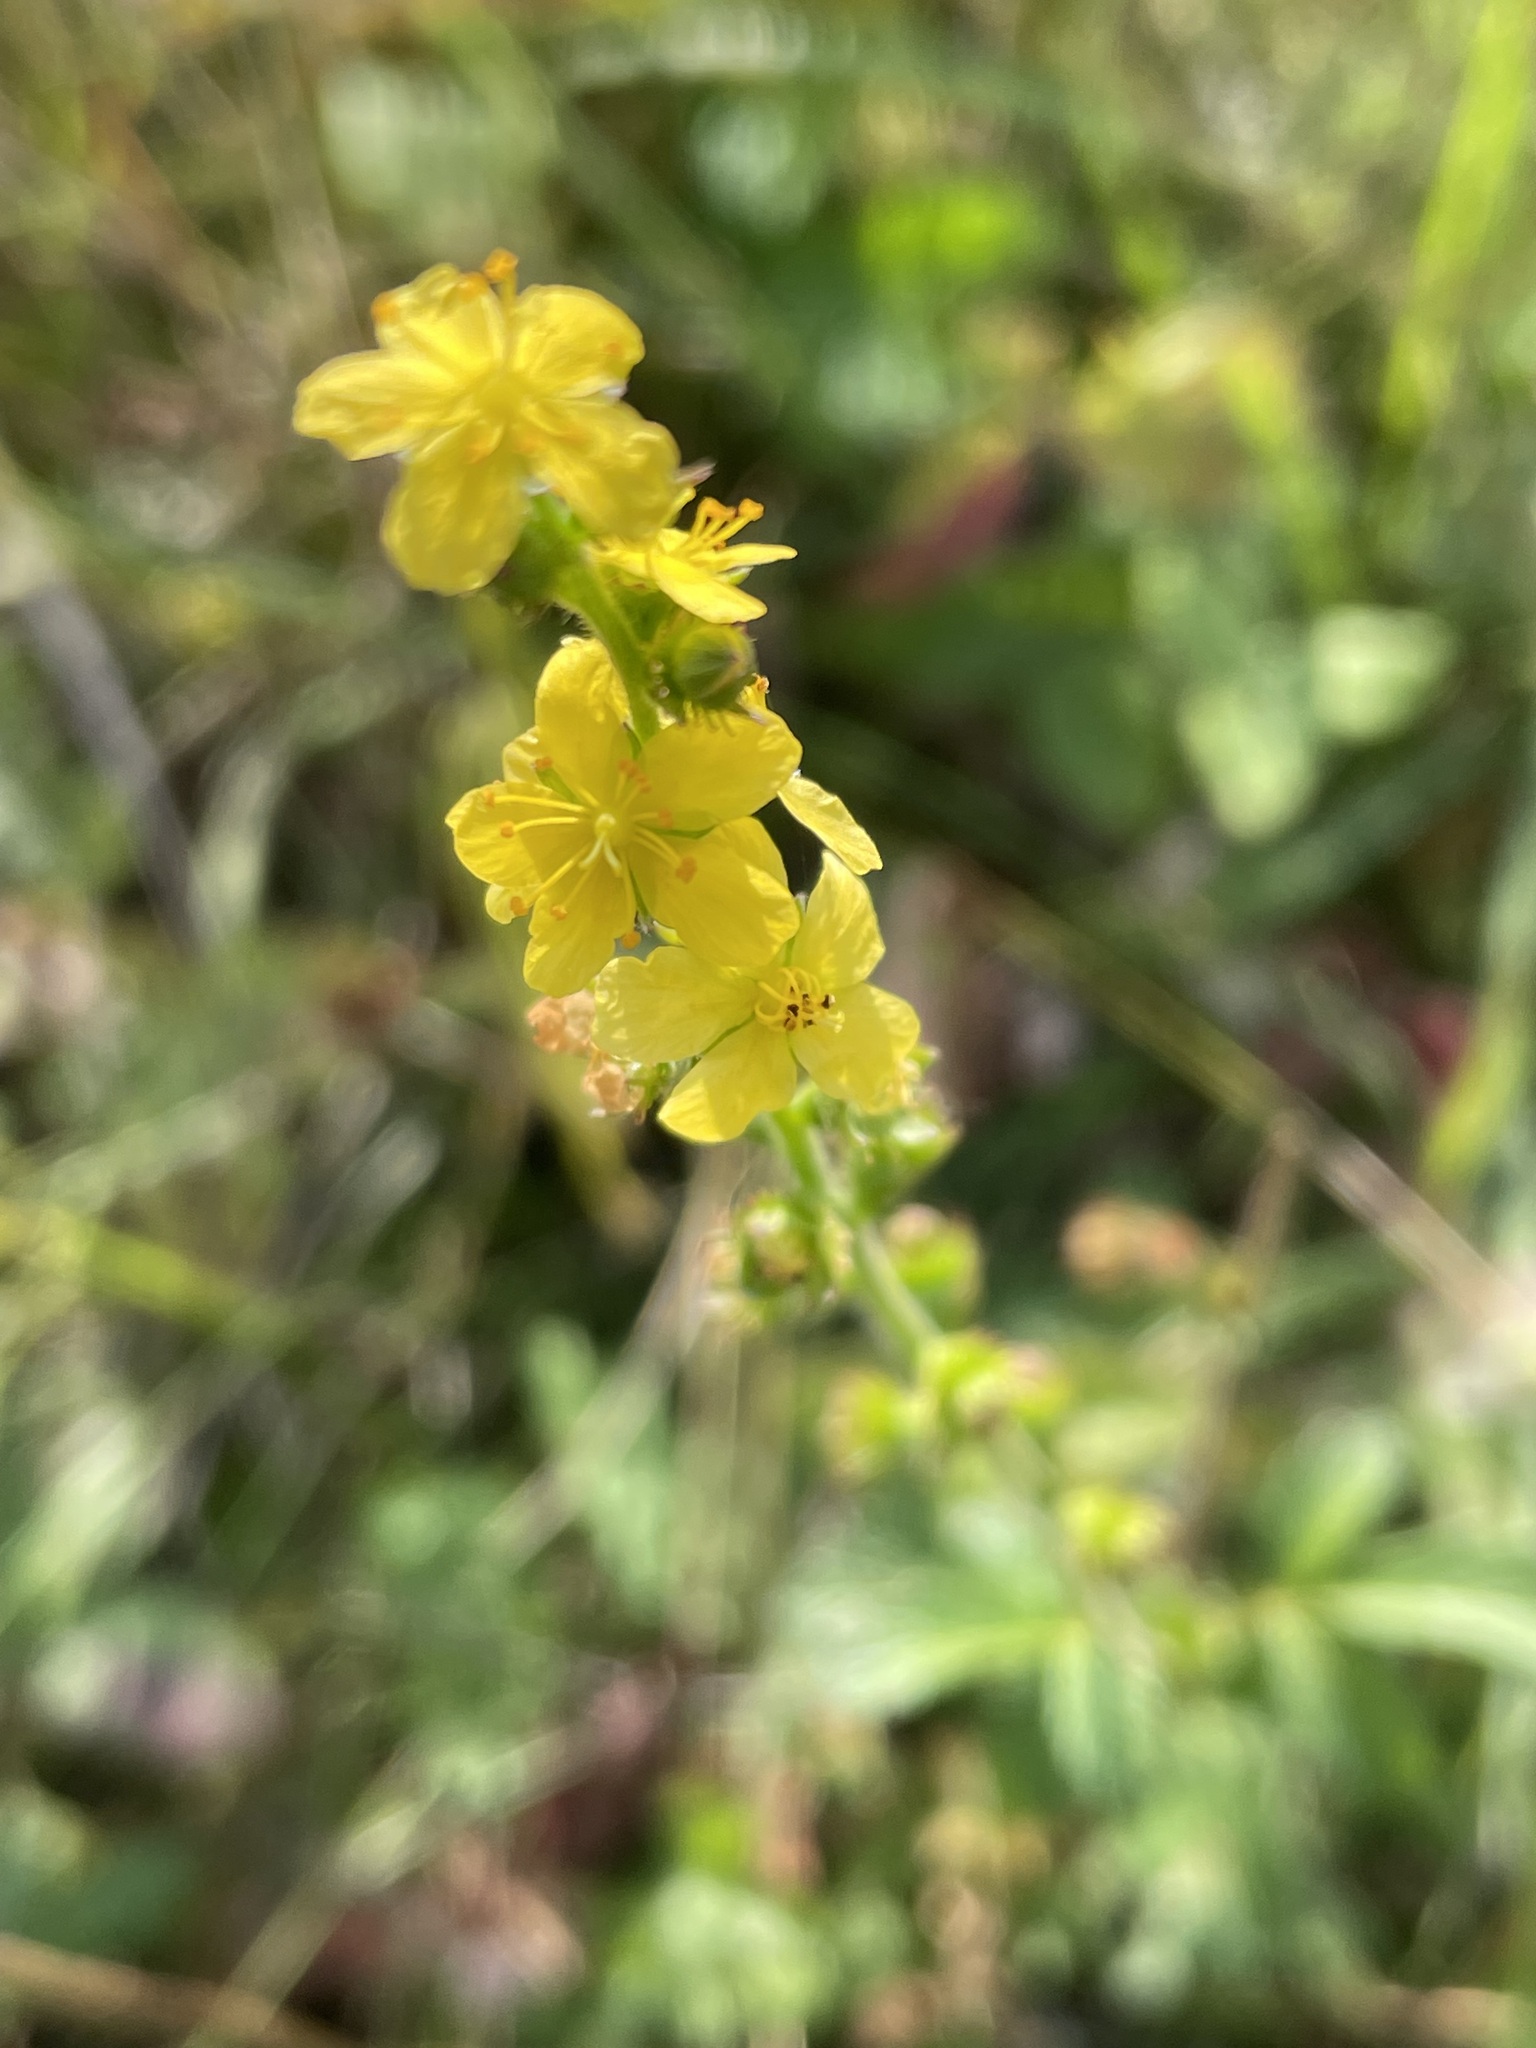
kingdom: Plantae
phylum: Tracheophyta
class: Magnoliopsida
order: Rosales
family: Rosaceae
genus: Agrimonia
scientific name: Agrimonia eupatoria
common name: Agrimony
